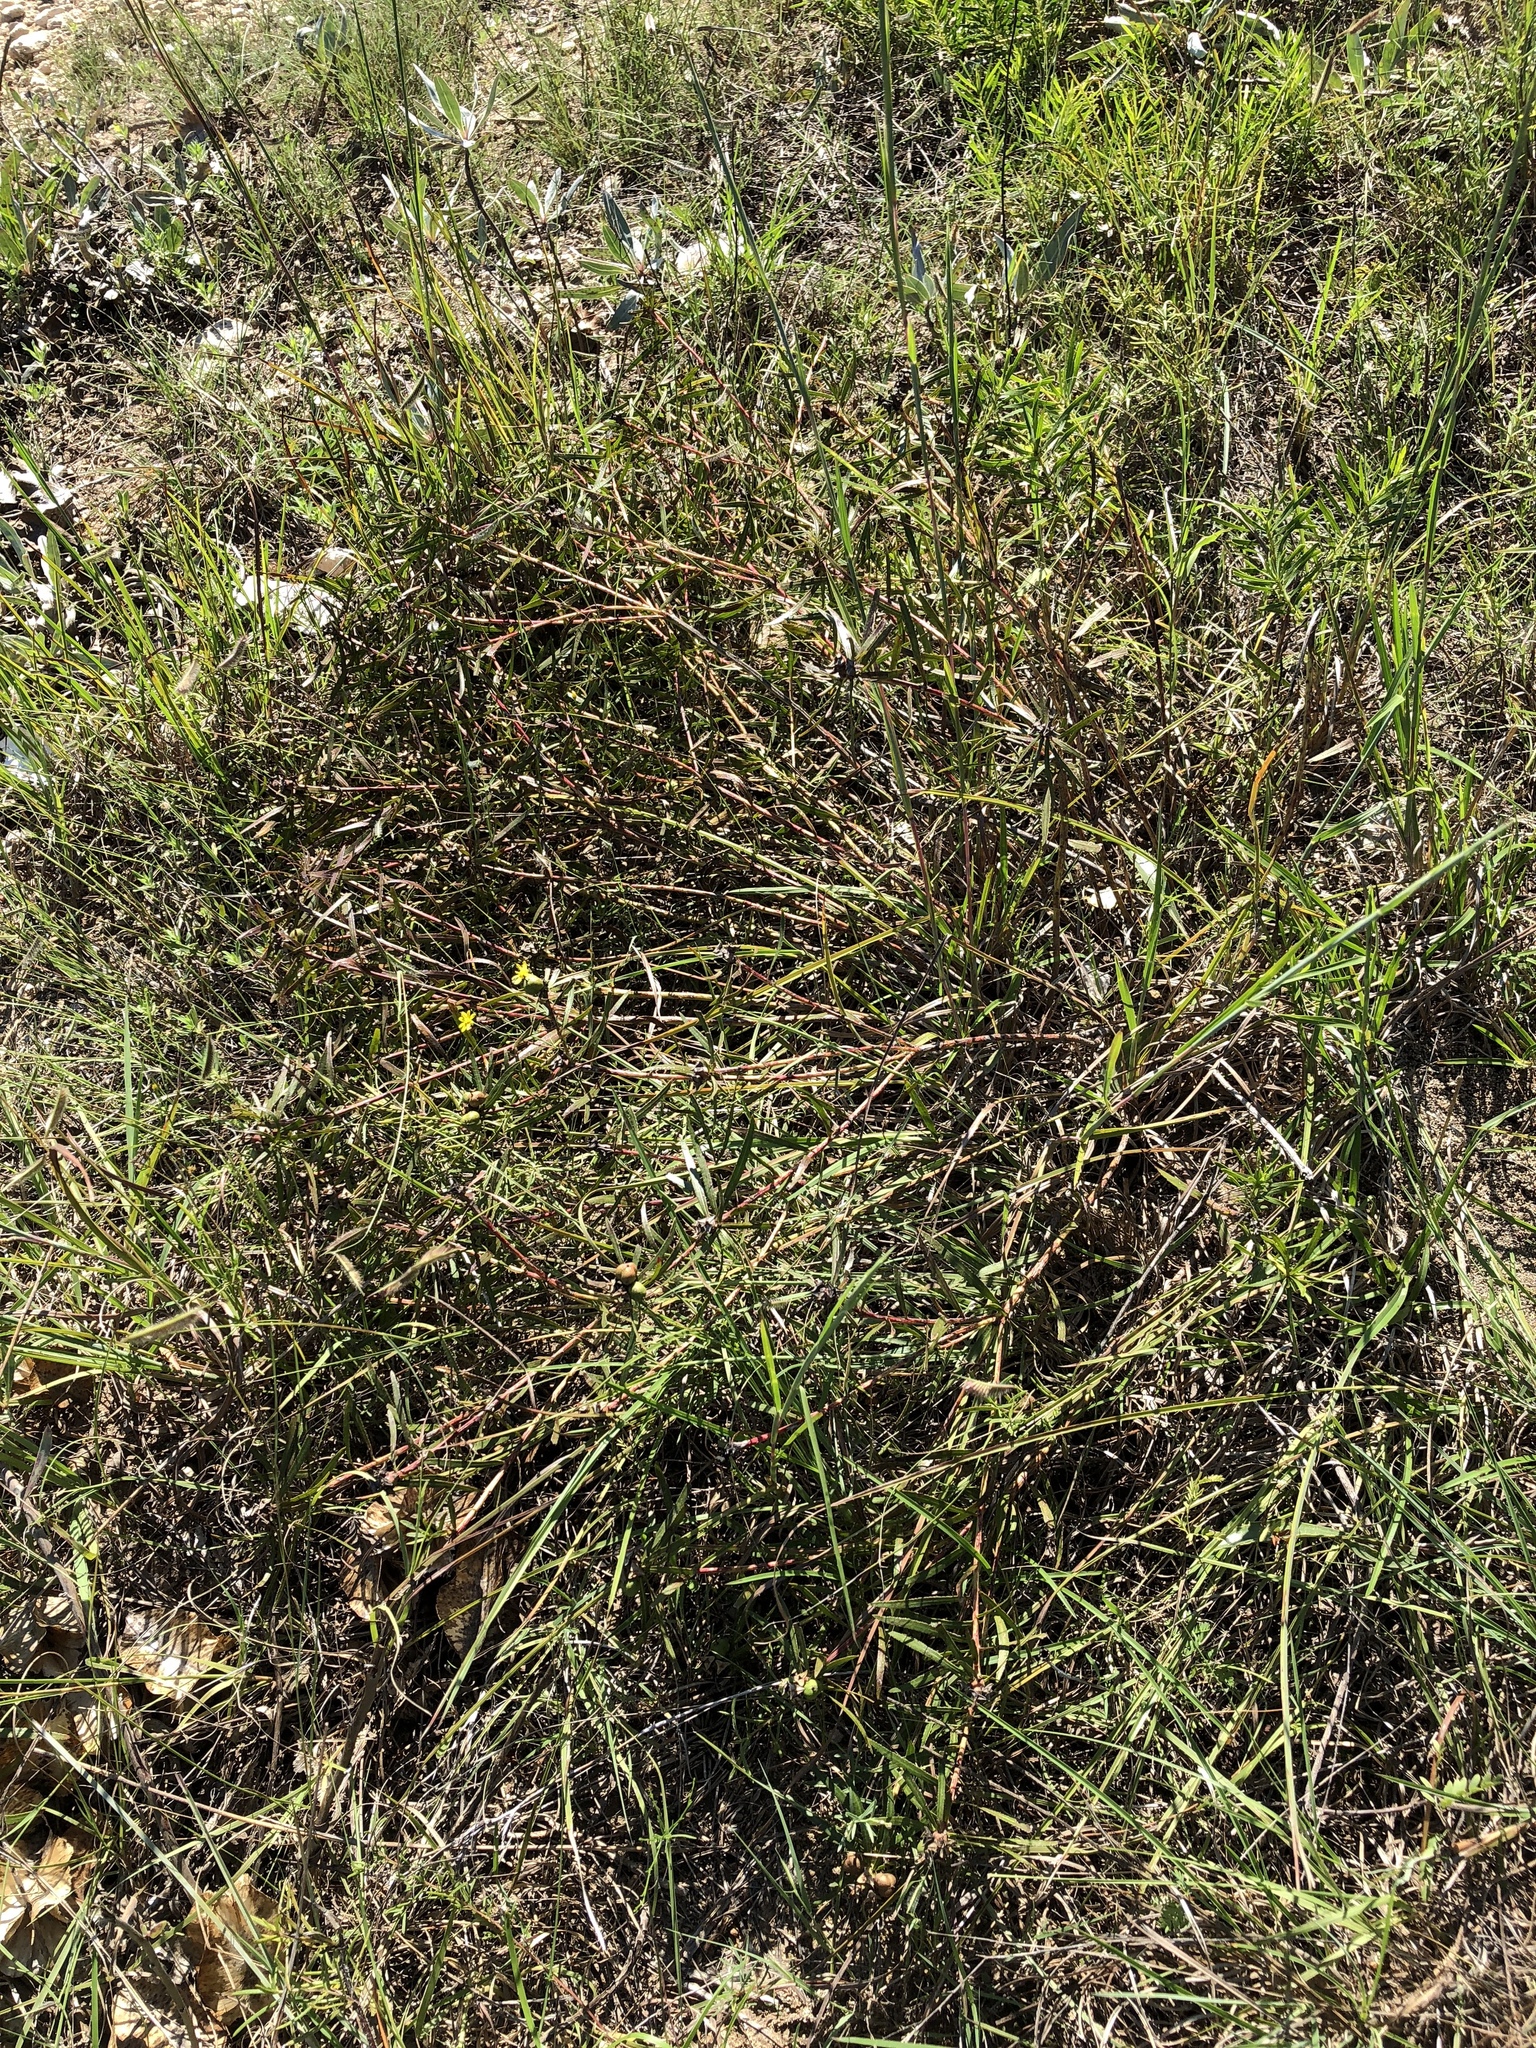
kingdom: Plantae
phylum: Tracheophyta
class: Magnoliopsida
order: Malpighiales
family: Euphorbiaceae
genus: Stillingia
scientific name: Stillingia texana
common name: Texas stillingia
